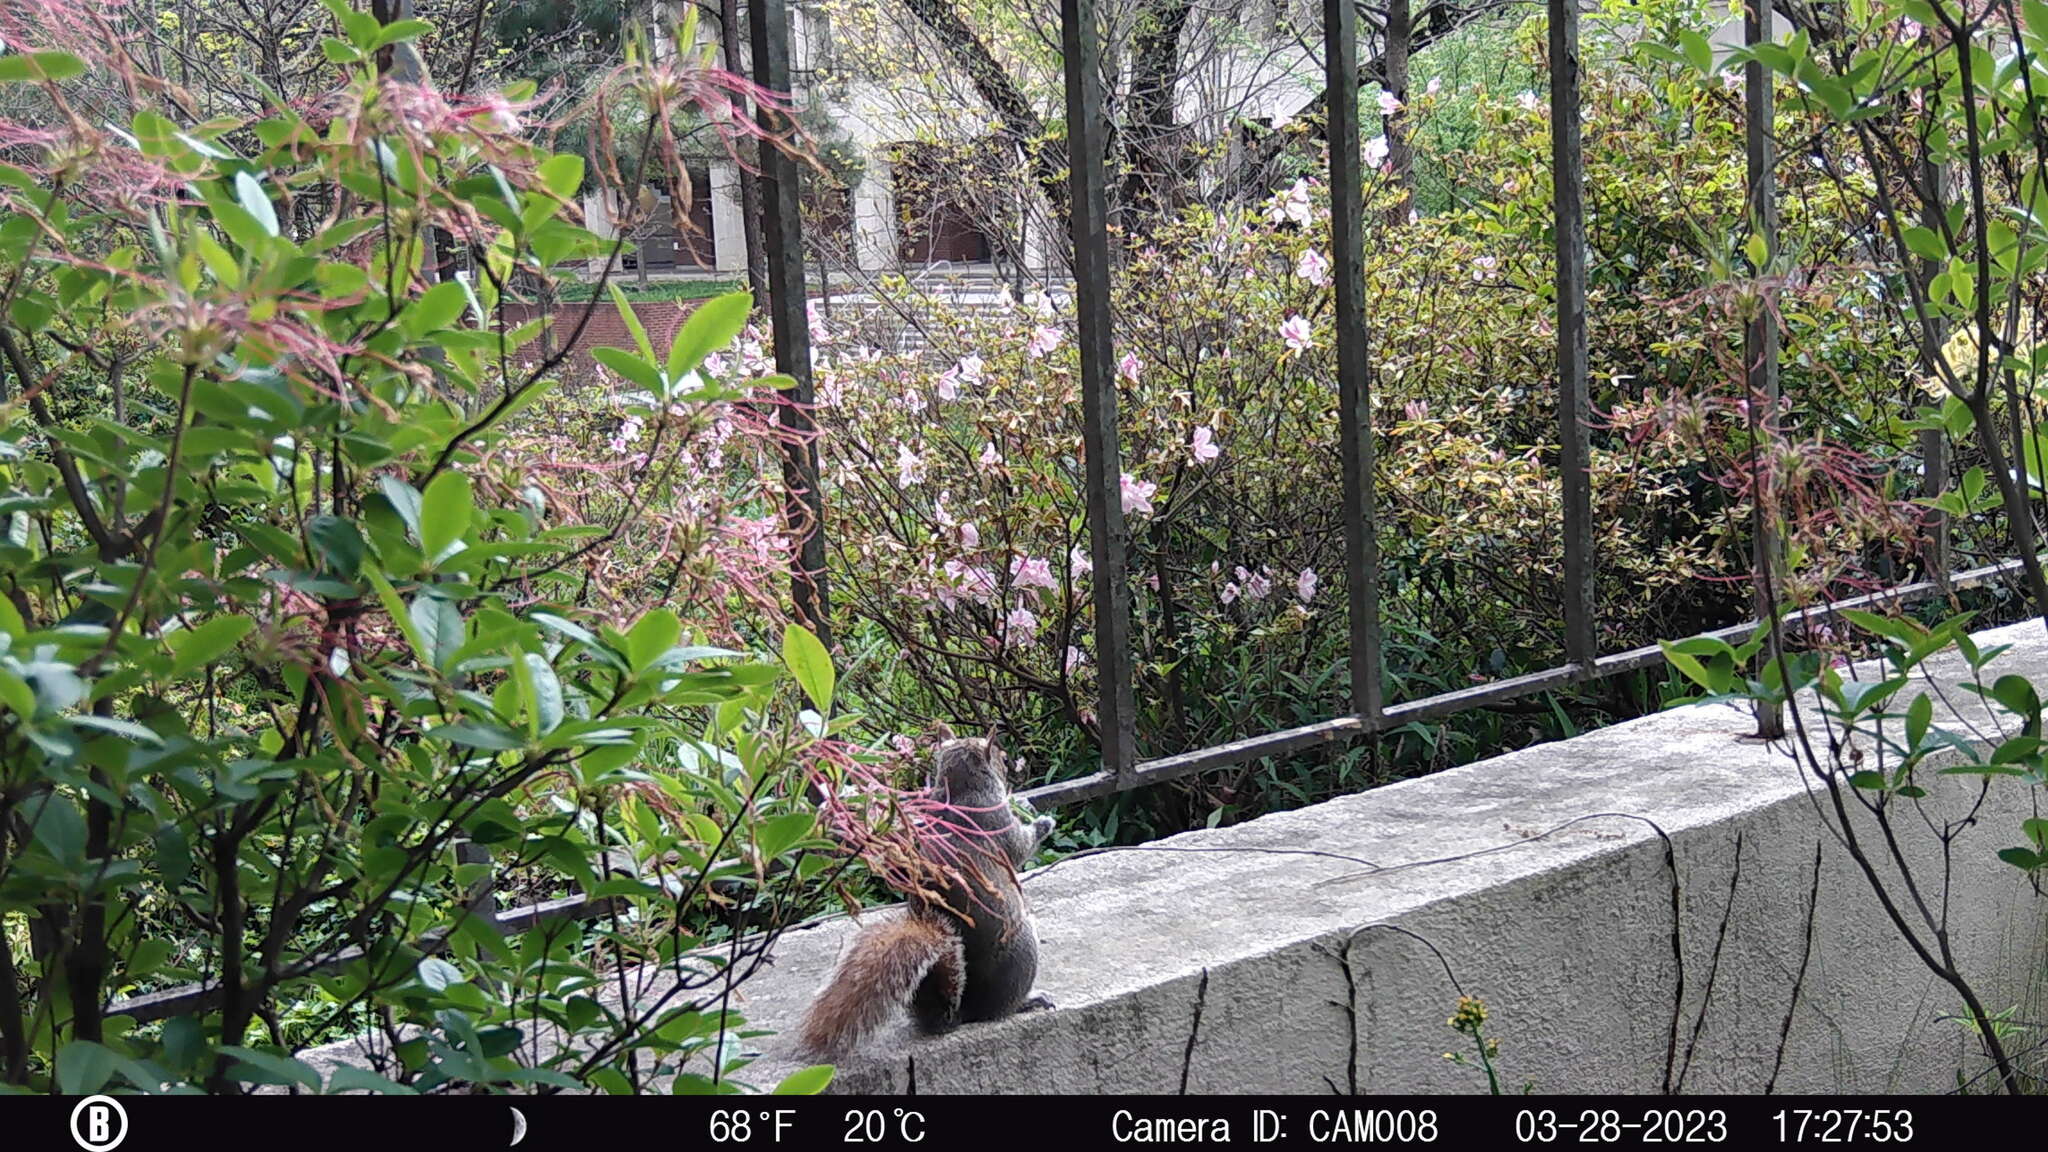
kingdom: Animalia
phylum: Chordata
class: Mammalia
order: Rodentia
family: Sciuridae
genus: Sciurus
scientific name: Sciurus carolinensis
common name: Eastern gray squirrel
